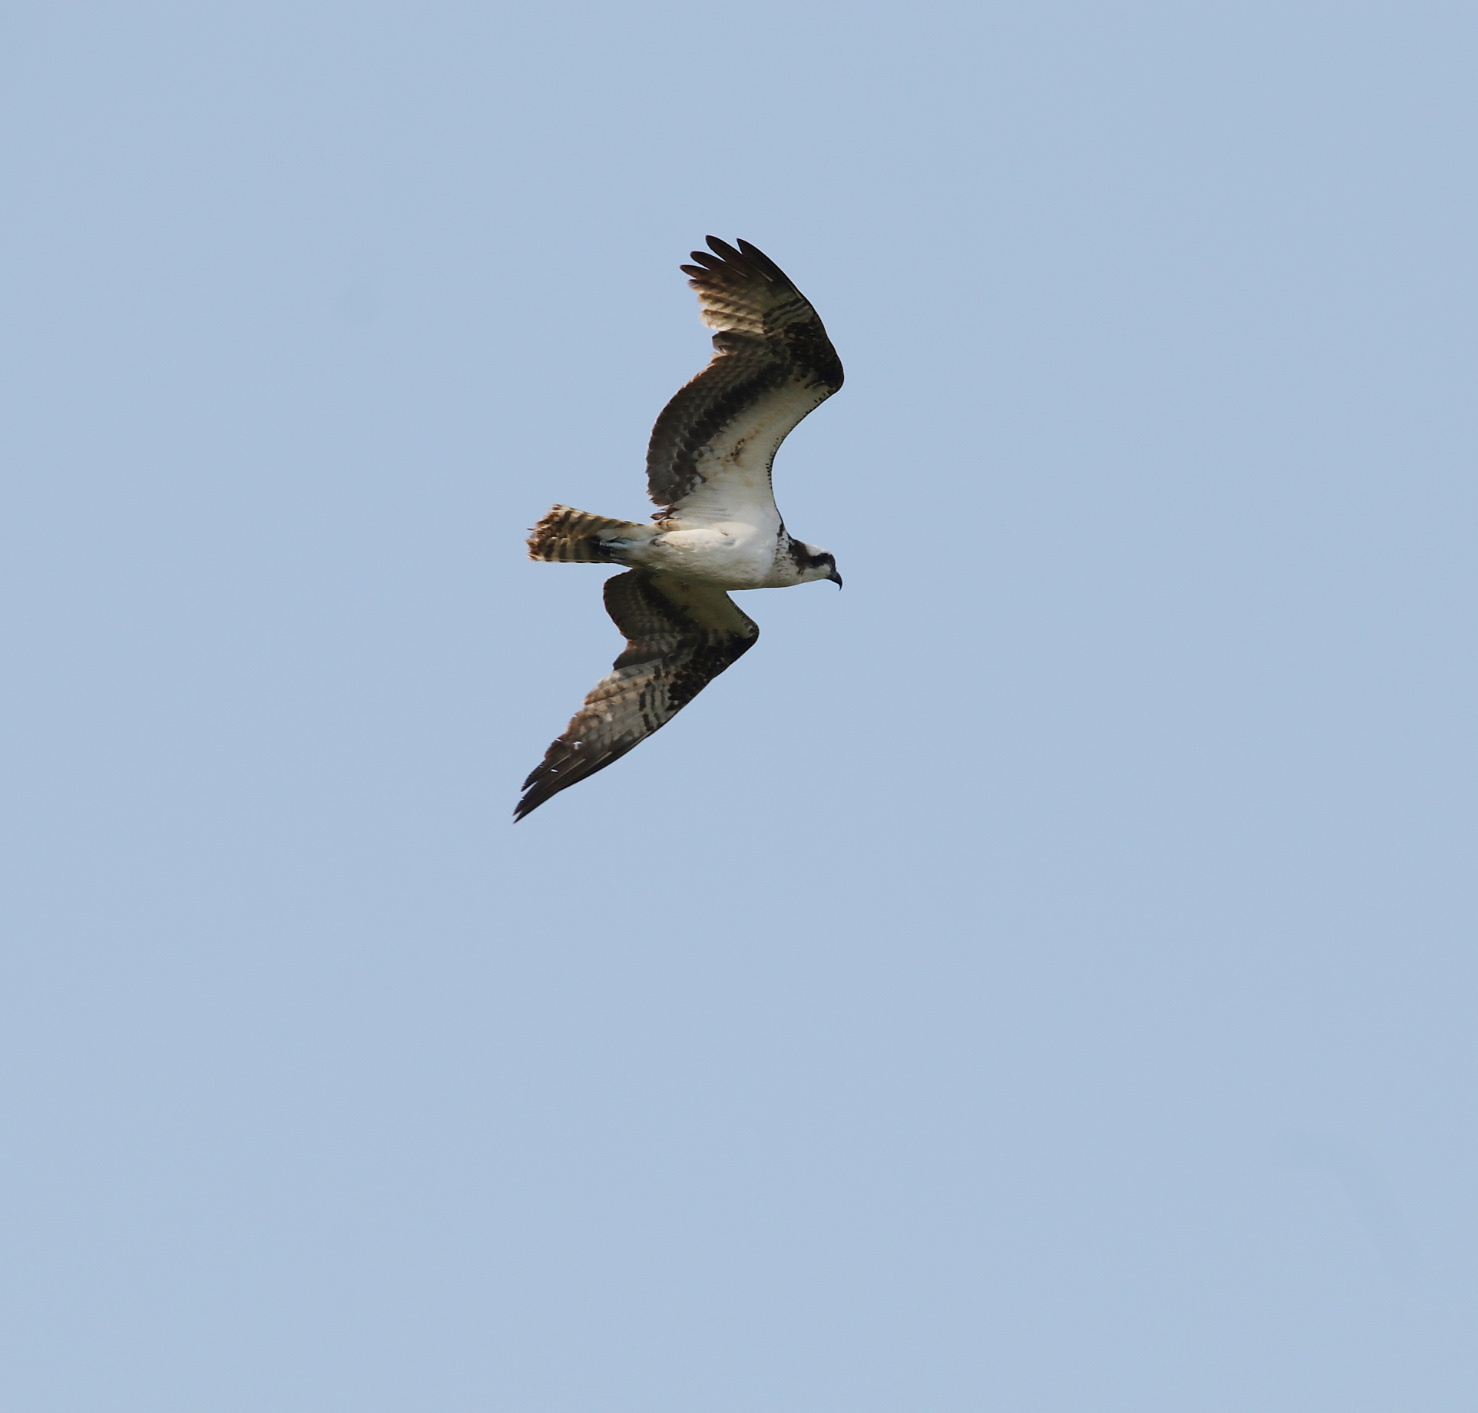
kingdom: Animalia
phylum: Chordata
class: Aves
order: Accipitriformes
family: Pandionidae
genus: Pandion
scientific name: Pandion haliaetus
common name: Osprey
